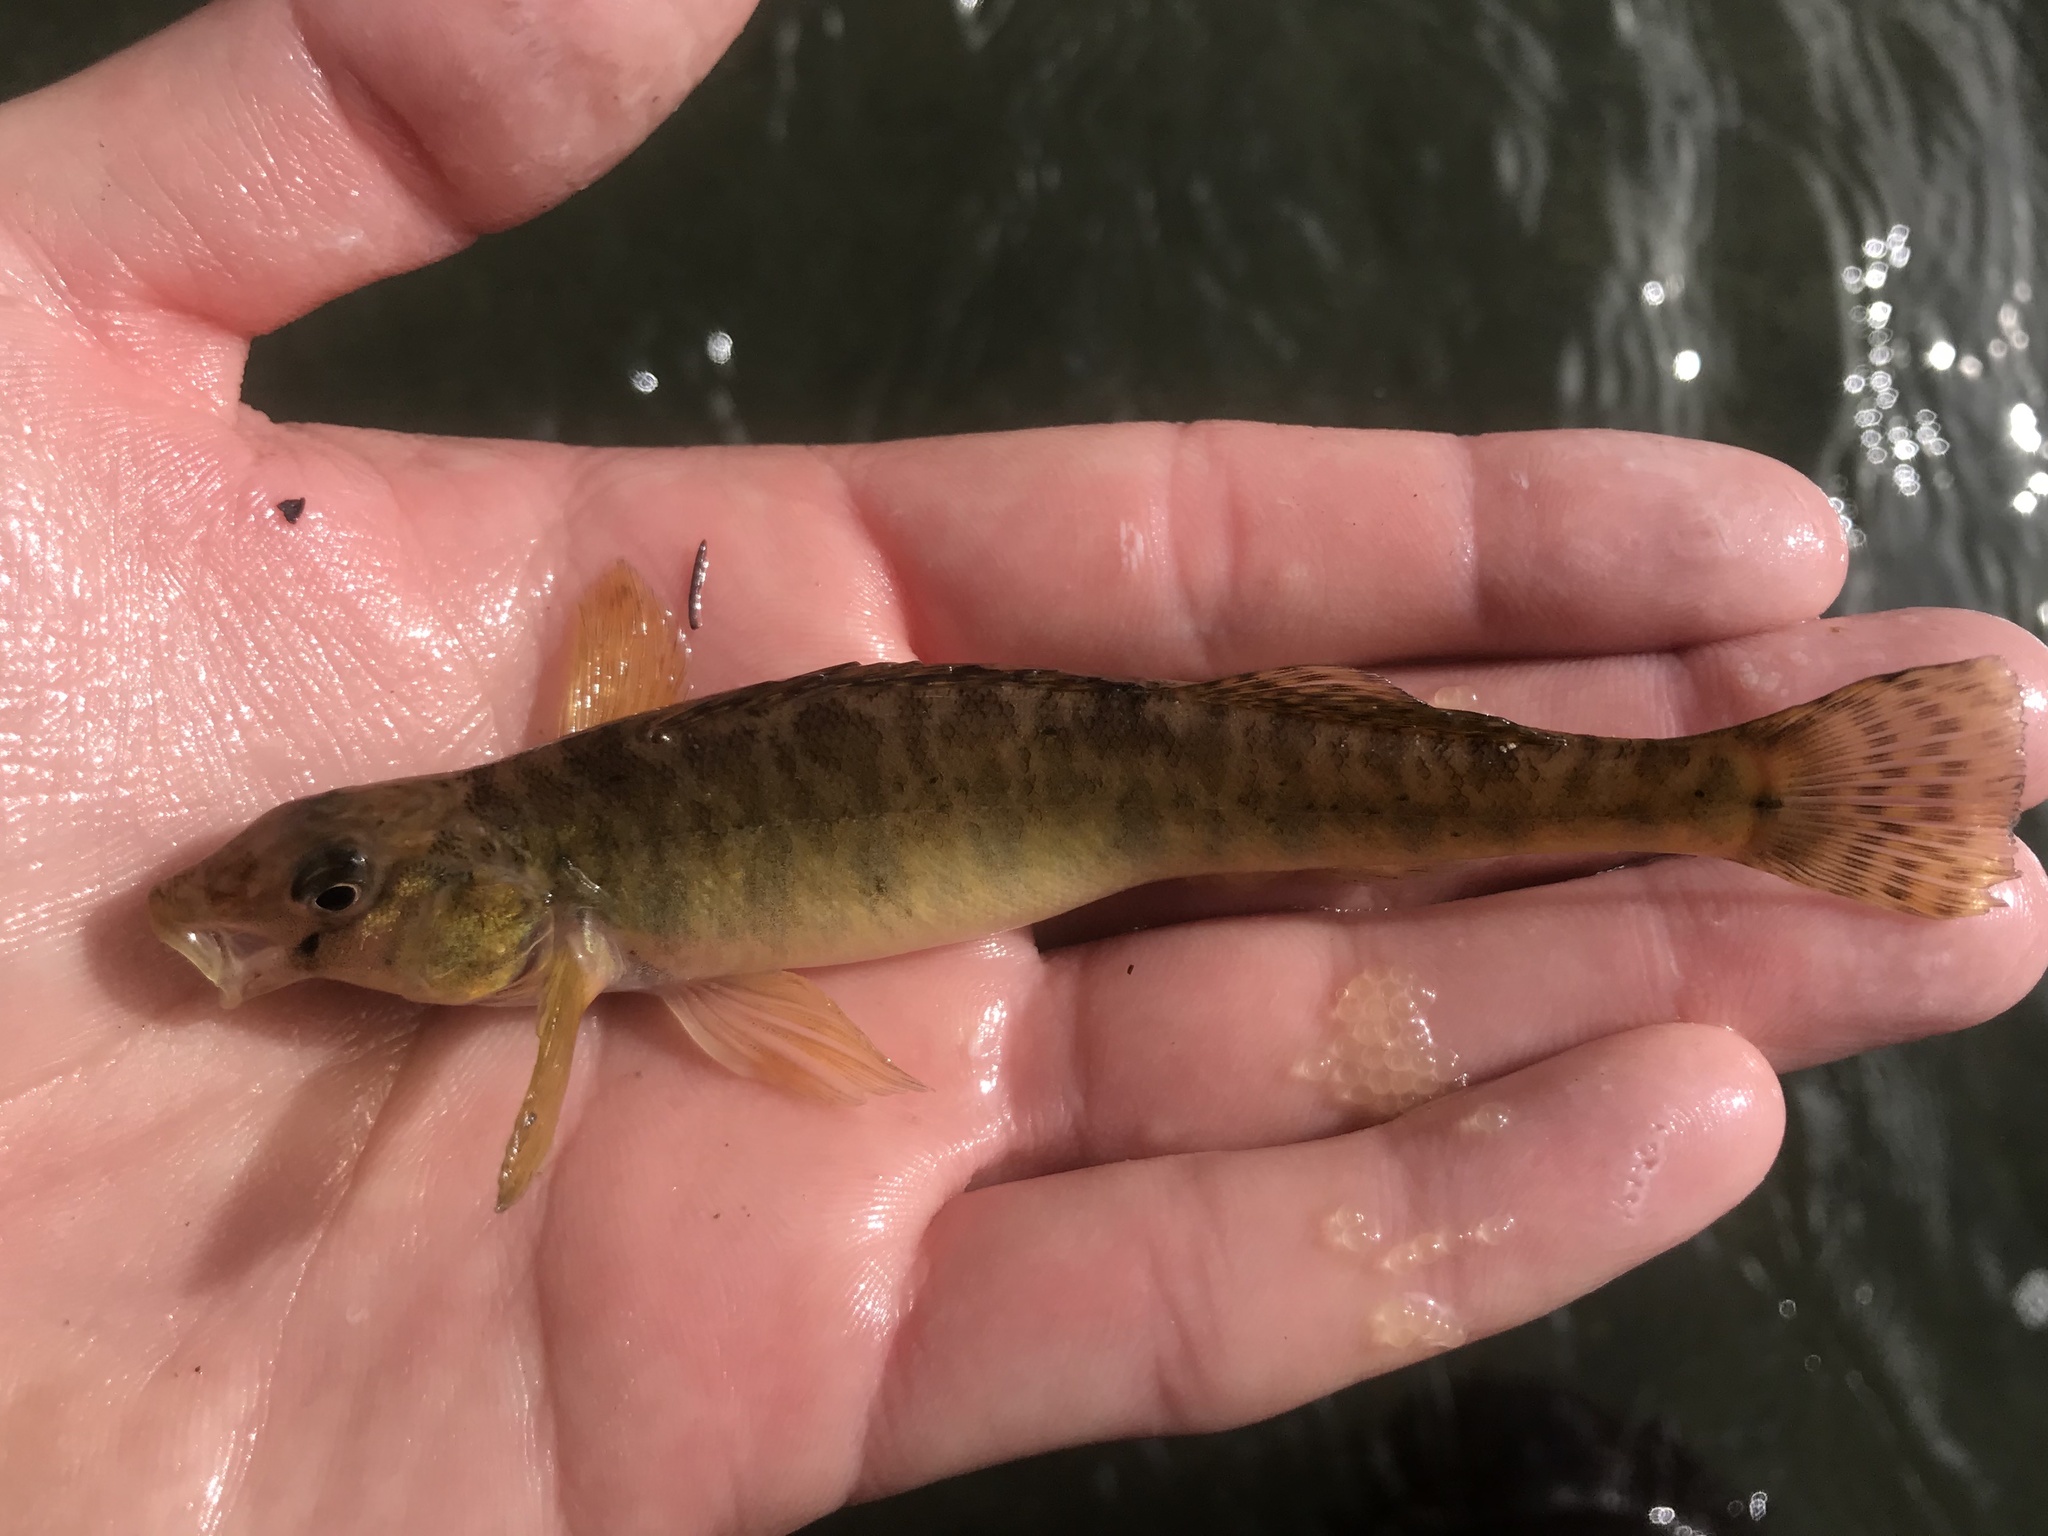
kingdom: Animalia
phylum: Chordata
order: Perciformes
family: Percidae
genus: Percina
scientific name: Percina carbonaria
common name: Texas logperch
